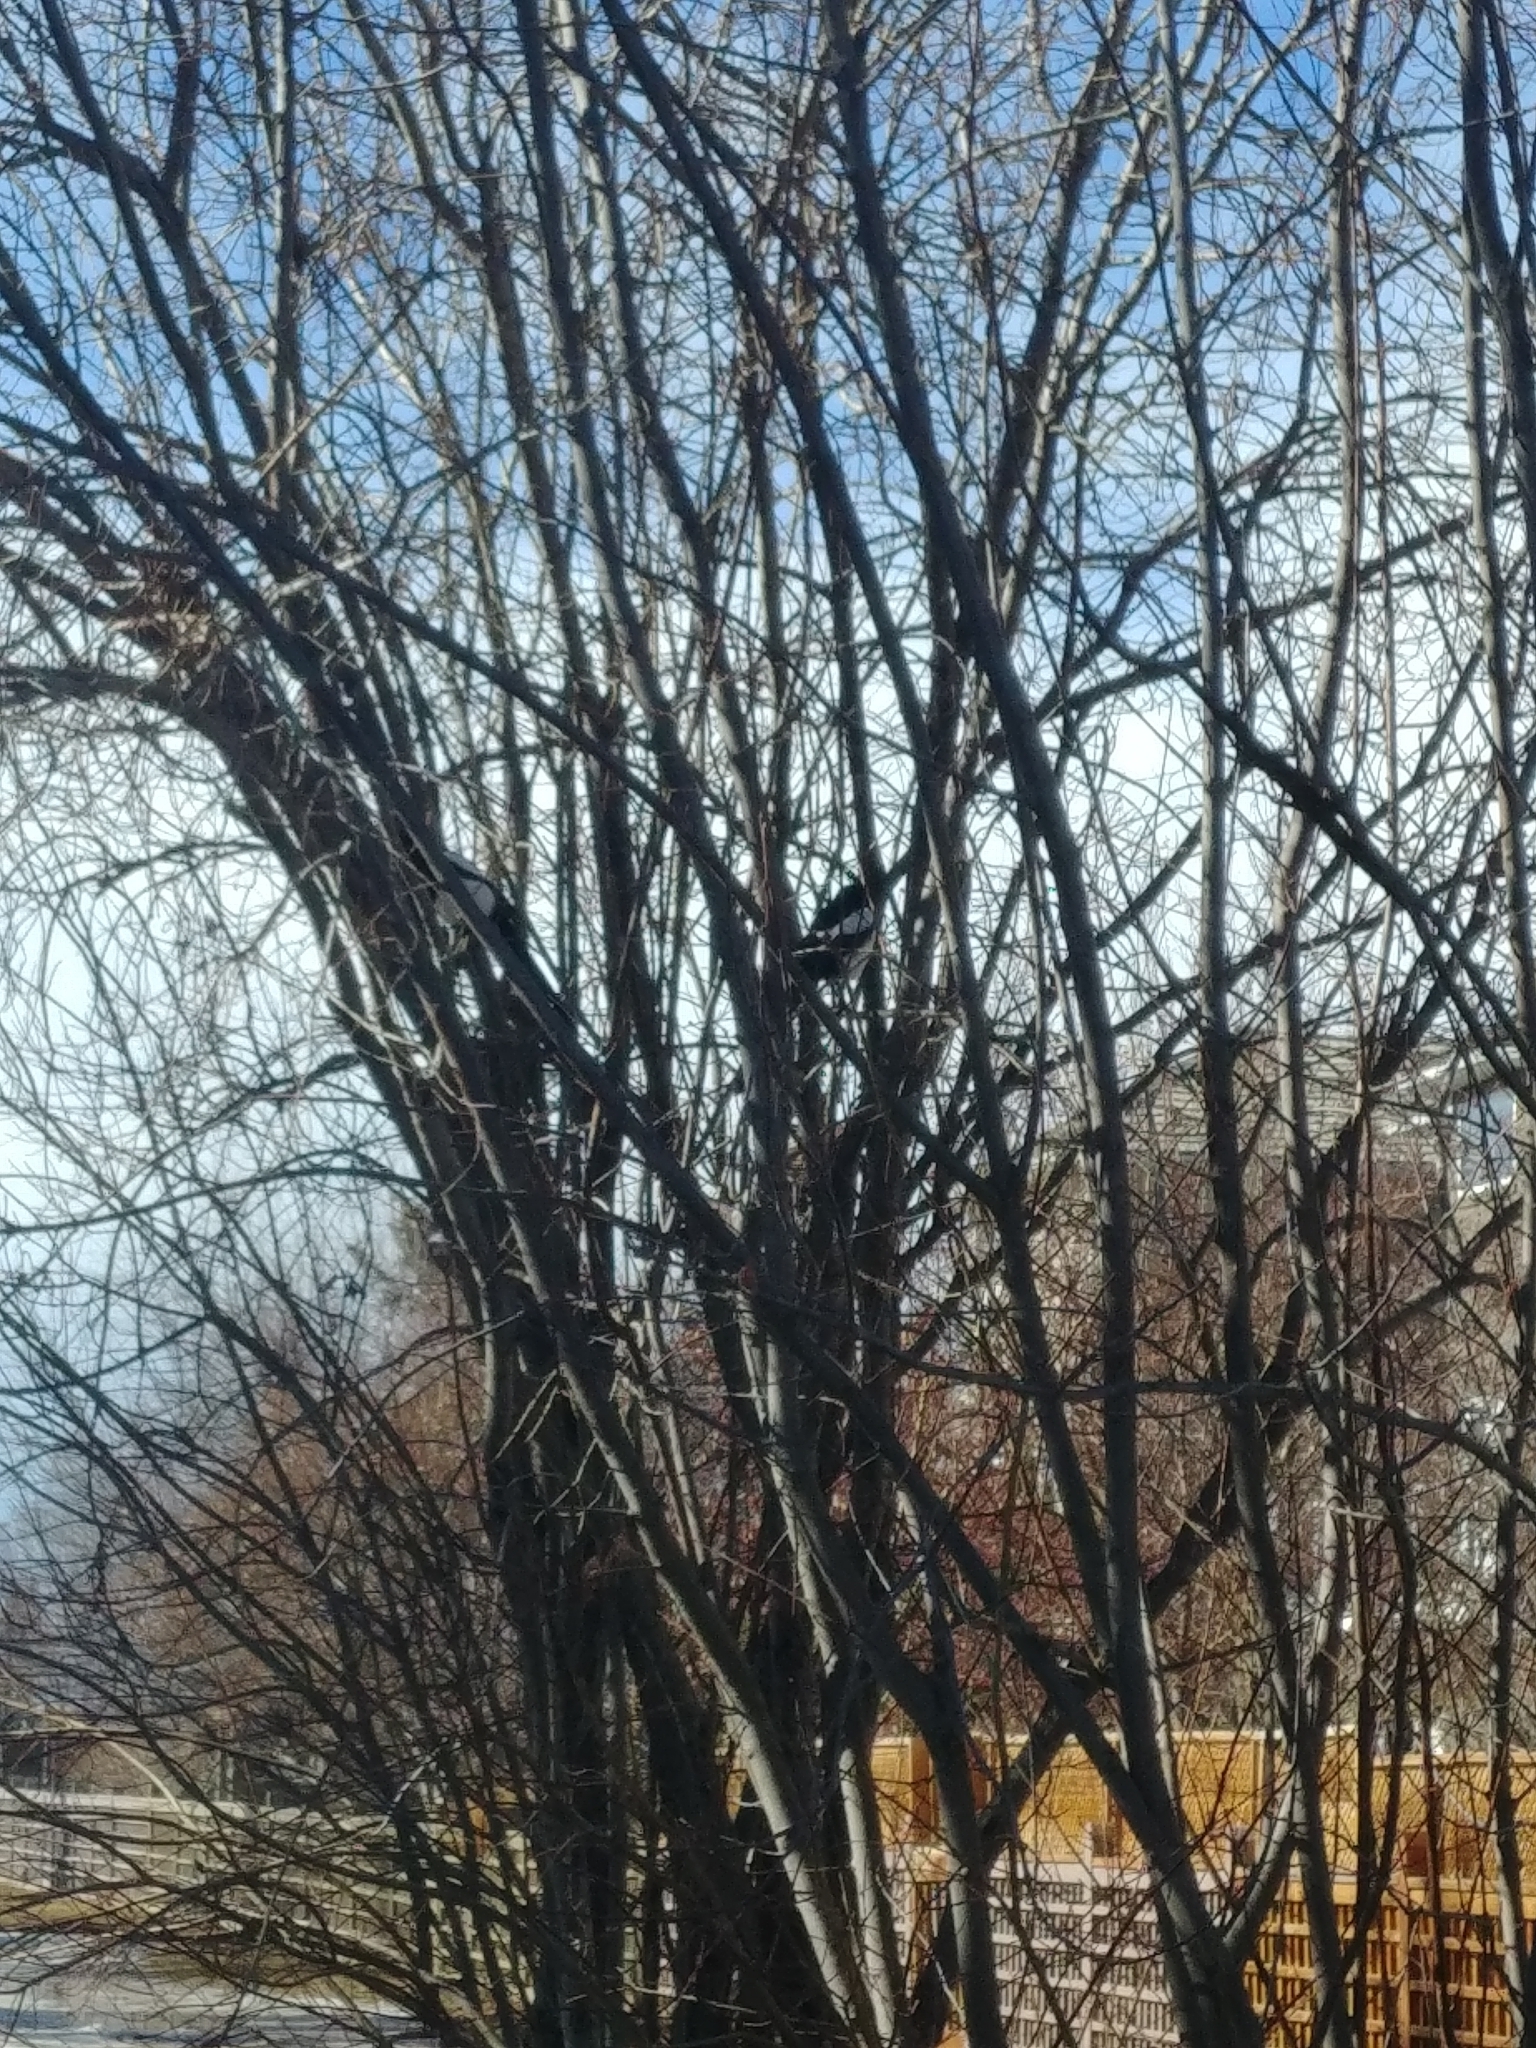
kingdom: Animalia
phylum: Chordata
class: Aves
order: Passeriformes
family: Corvidae
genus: Pica
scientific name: Pica hudsonia
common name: Black-billed magpie
